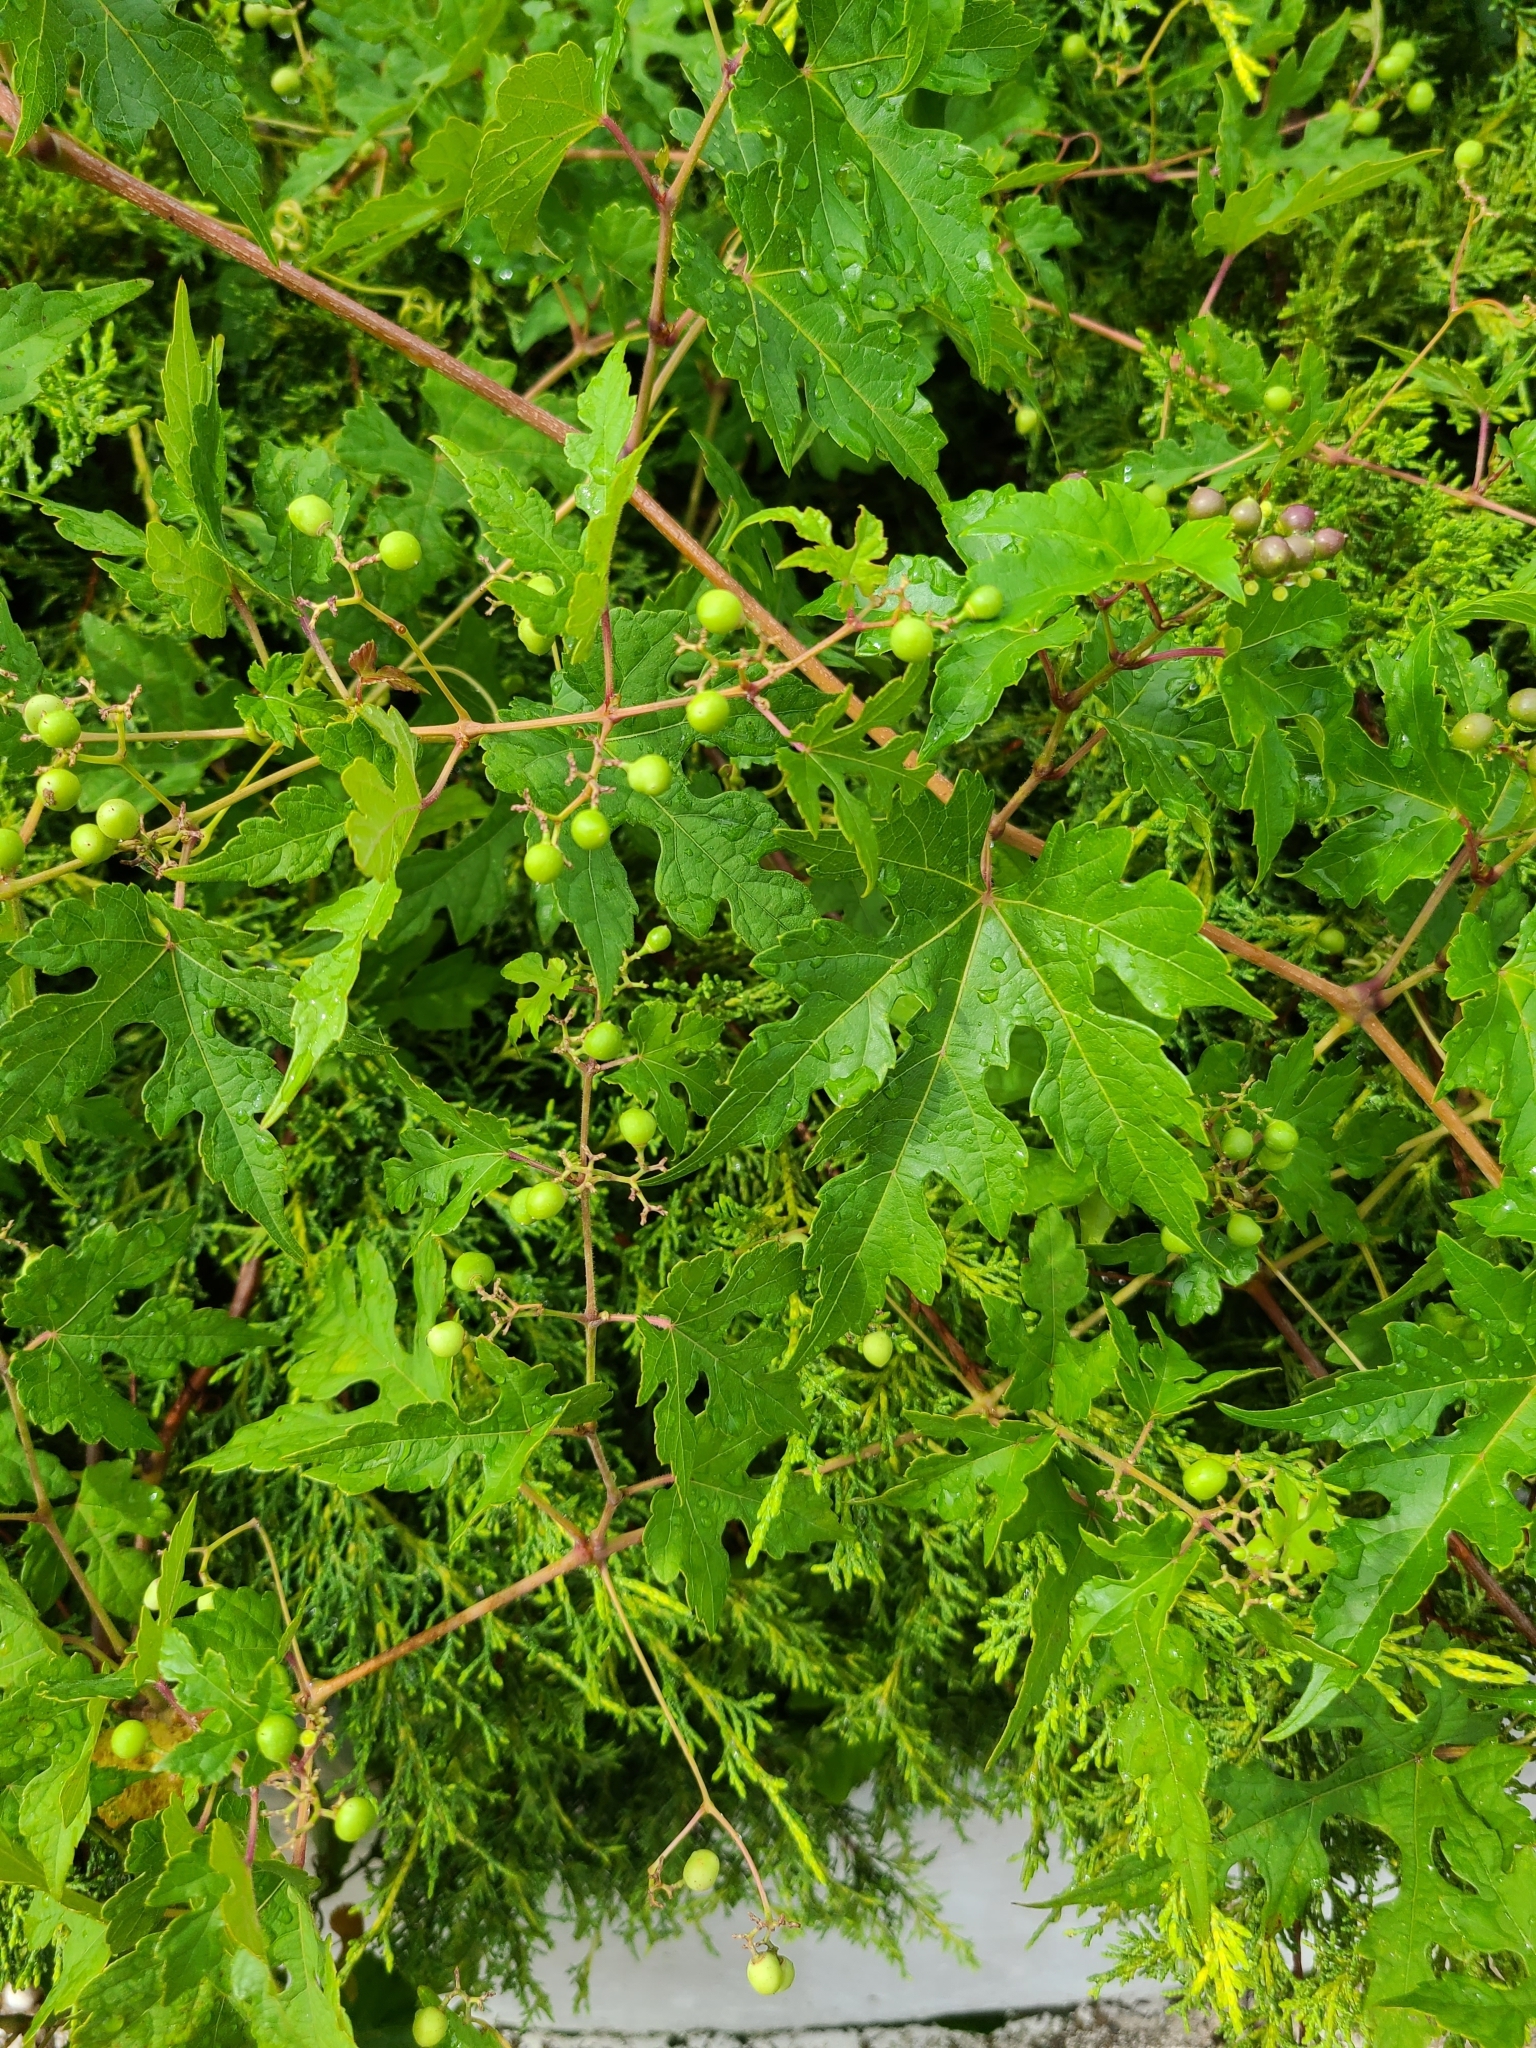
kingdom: Plantae
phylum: Tracheophyta
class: Magnoliopsida
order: Vitales
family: Vitaceae
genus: Ampelopsis
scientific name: Ampelopsis glandulosa
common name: Amur peppervine
